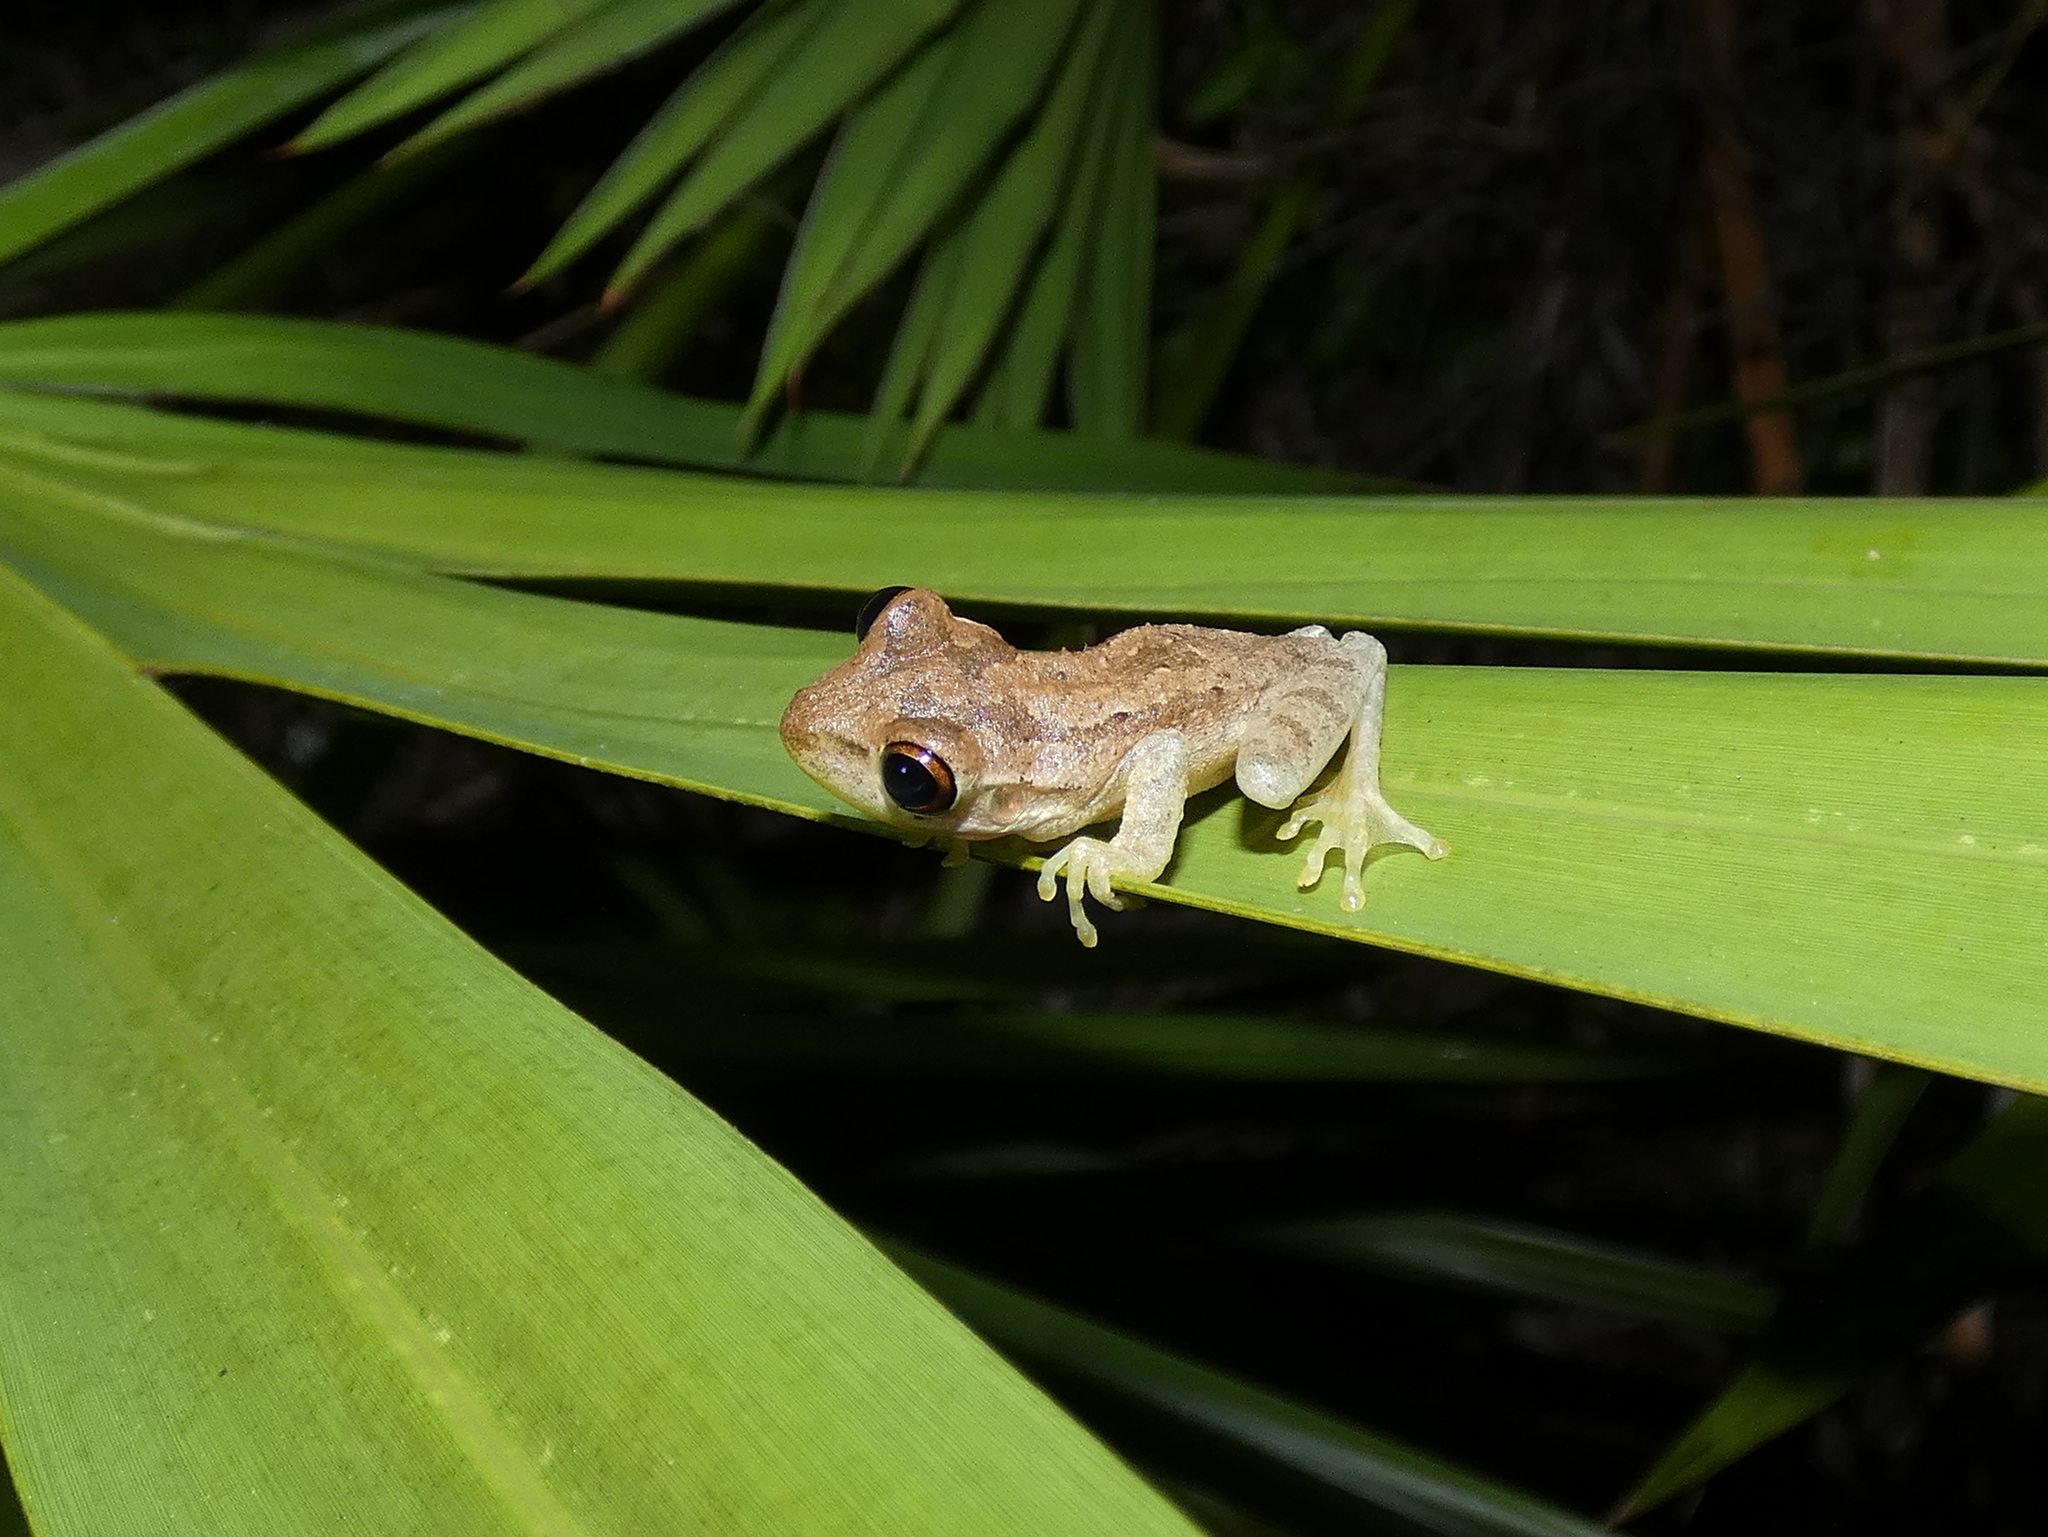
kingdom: Animalia
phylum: Chordata
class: Amphibia
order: Anura
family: Hylidae
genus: Osteopilus
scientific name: Osteopilus septentrionalis
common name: Cuban treefrog
